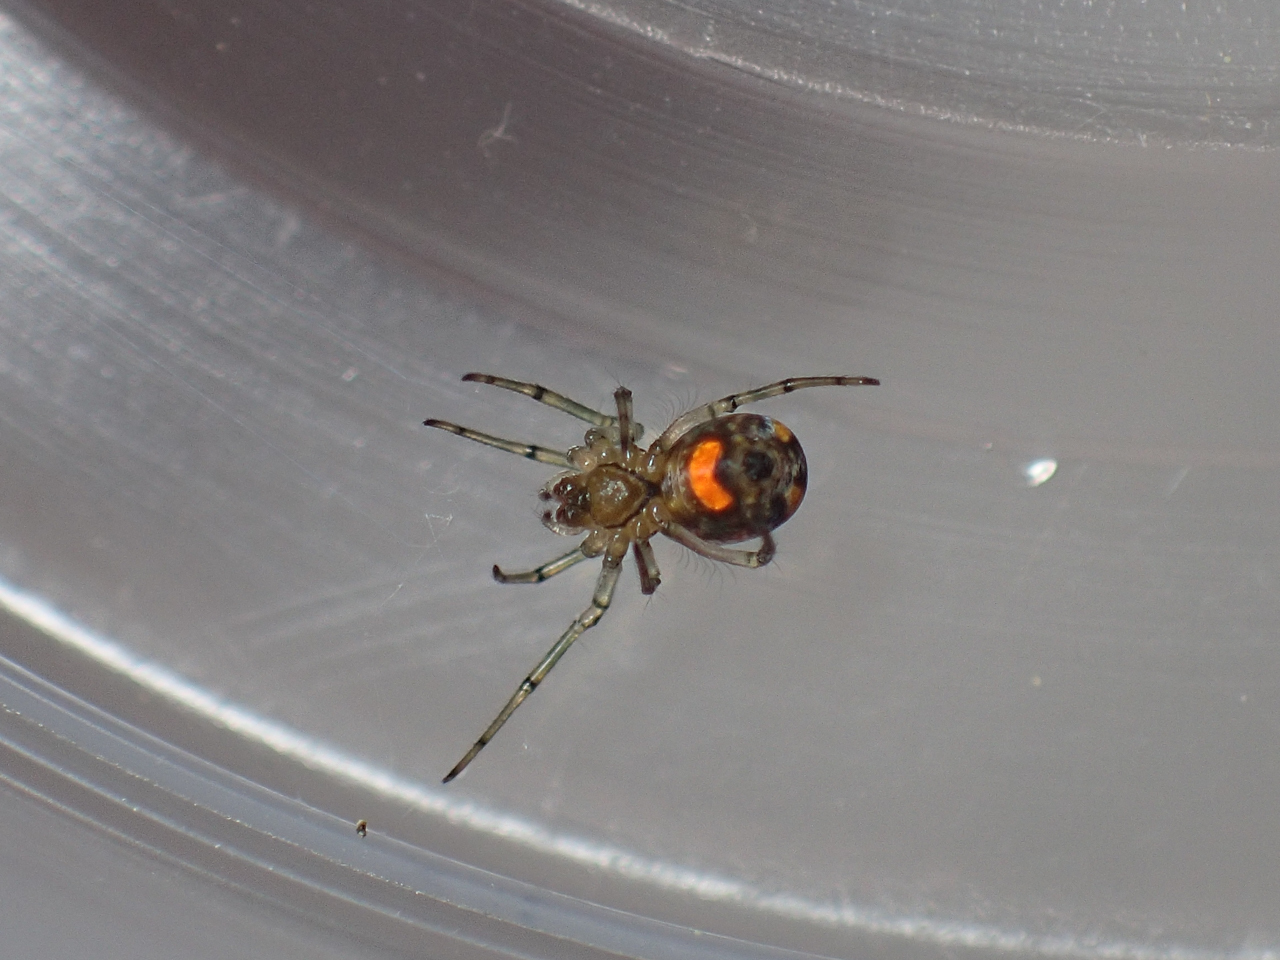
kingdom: Animalia
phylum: Arthropoda
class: Arachnida
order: Araneae
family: Tetragnathidae
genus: Leucauge
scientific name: Leucauge venusta
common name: Longjawed orb weavers
